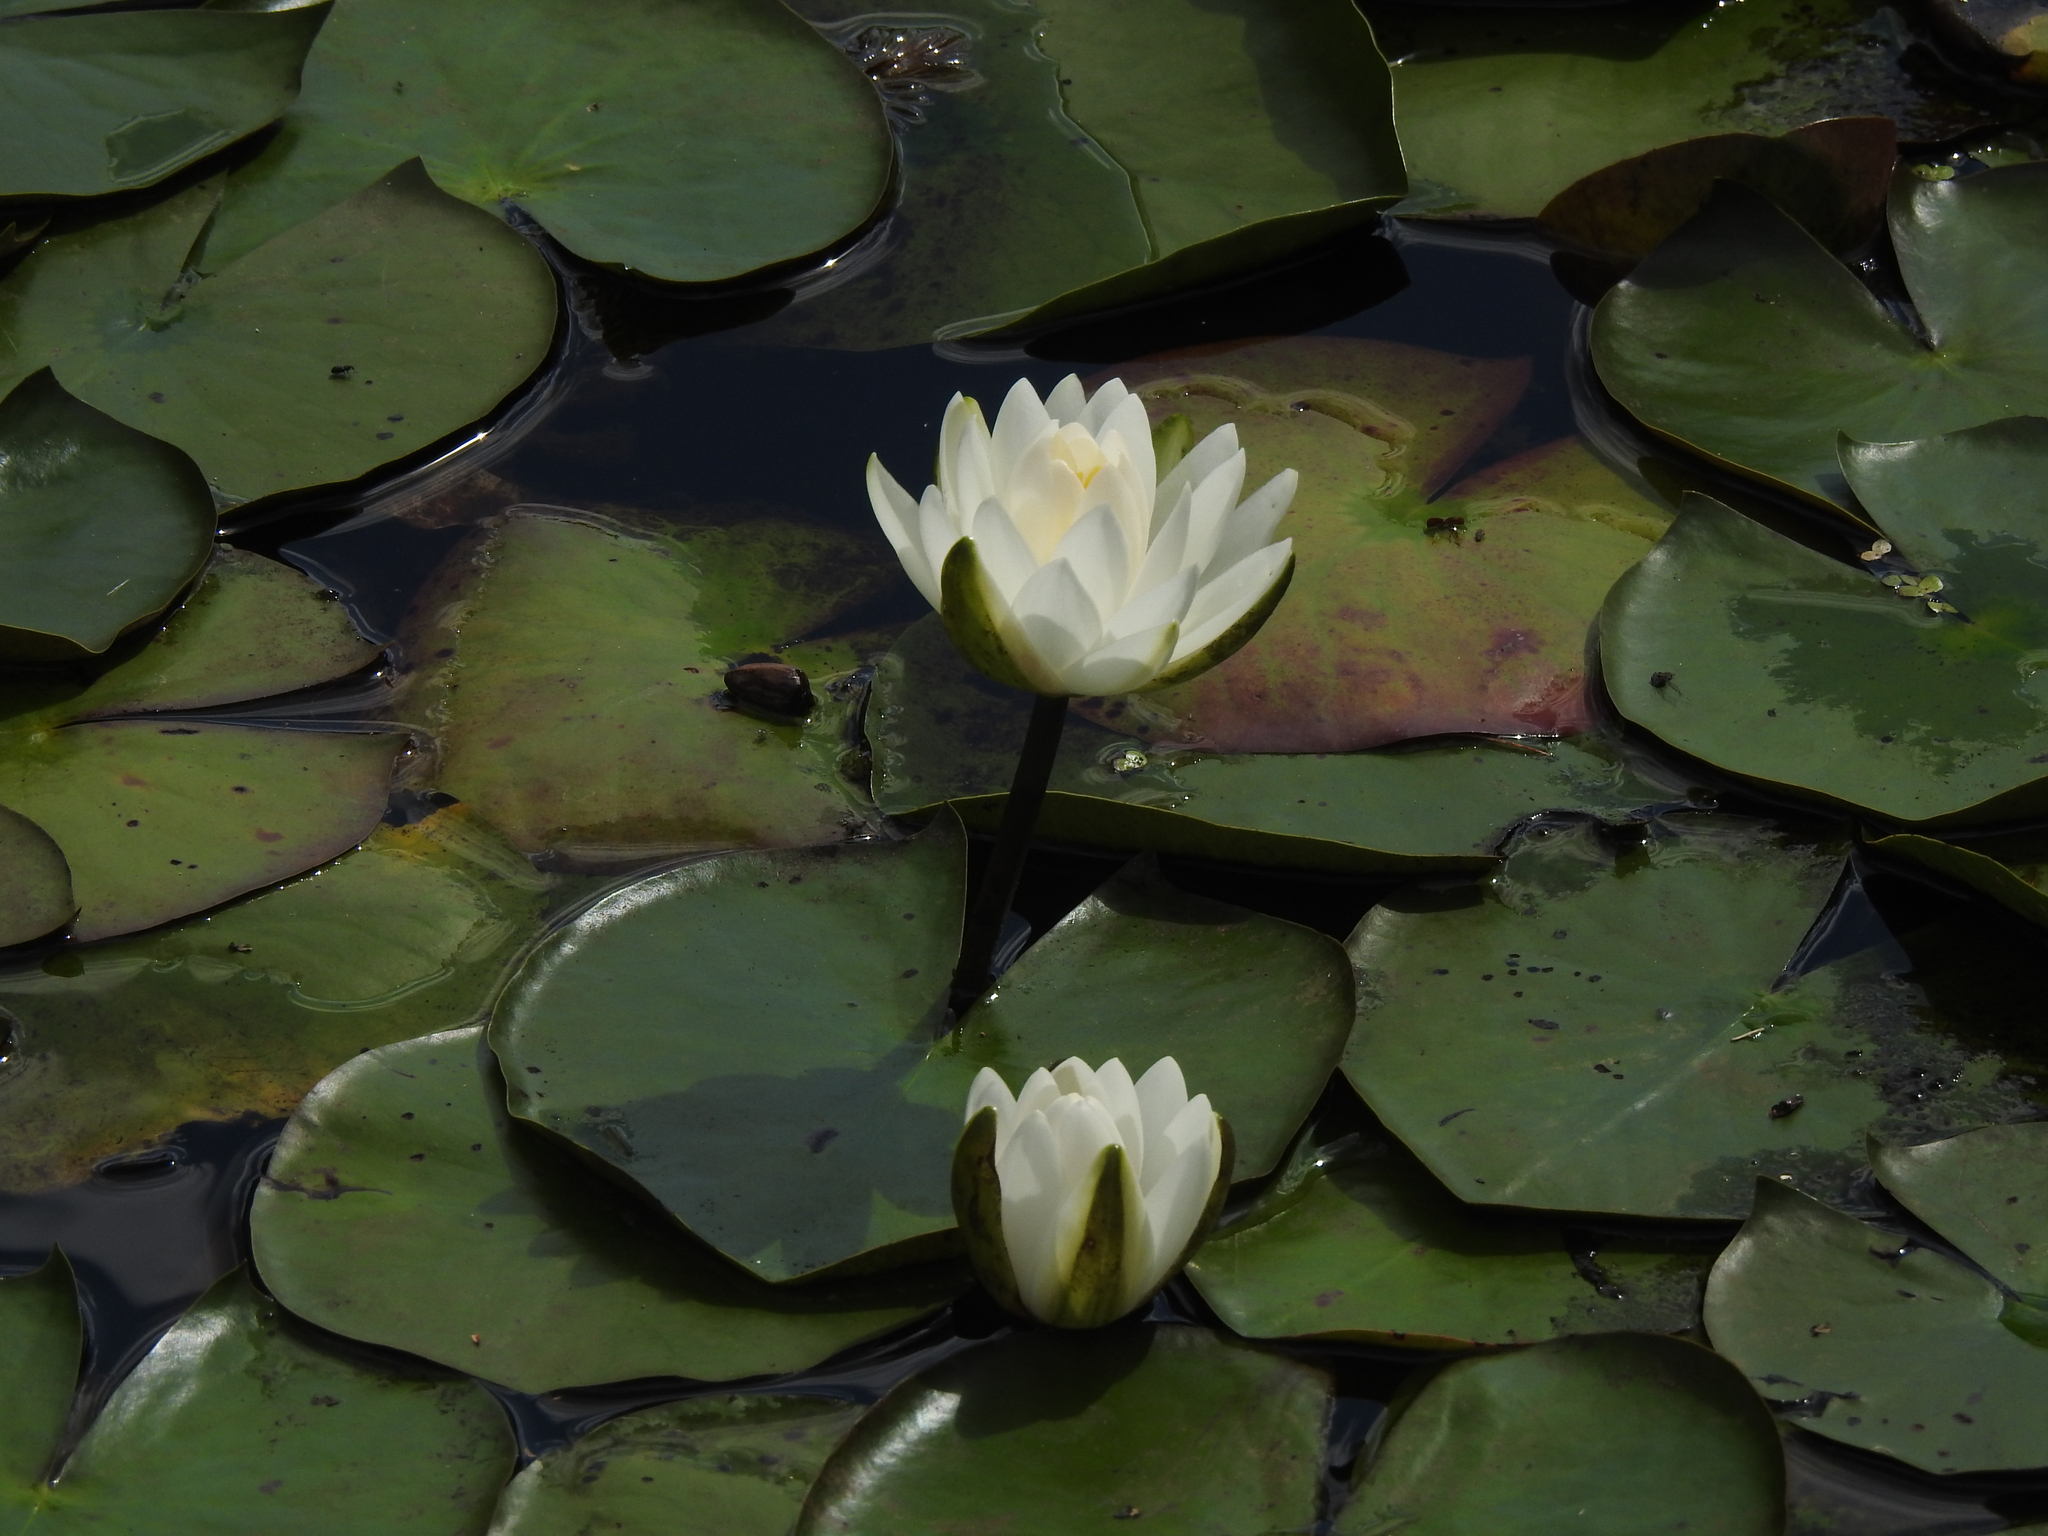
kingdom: Plantae
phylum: Tracheophyta
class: Magnoliopsida
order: Nymphaeales
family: Nymphaeaceae
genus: Nymphaea
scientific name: Nymphaea odorata
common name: Fragrant water-lily
